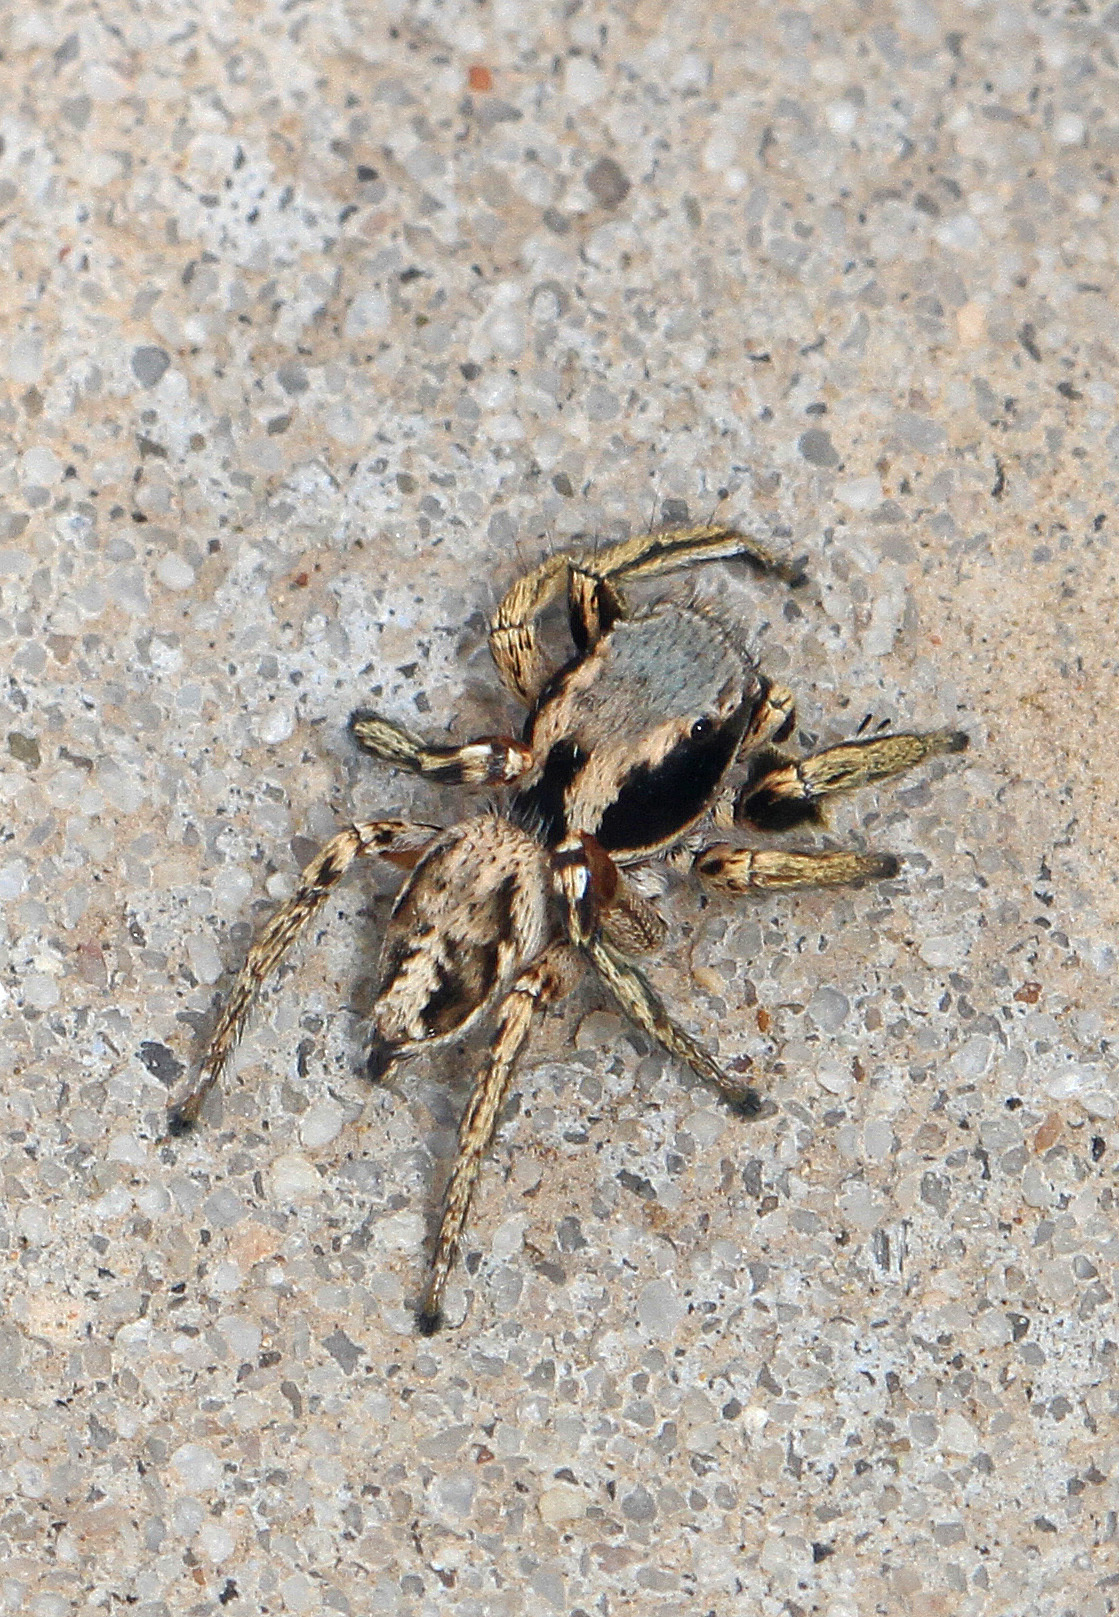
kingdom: Animalia
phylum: Arthropoda
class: Arachnida
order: Araneae
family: Salticidae
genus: Habronattus
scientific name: Habronattus mexicanus
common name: Jumping spiders
